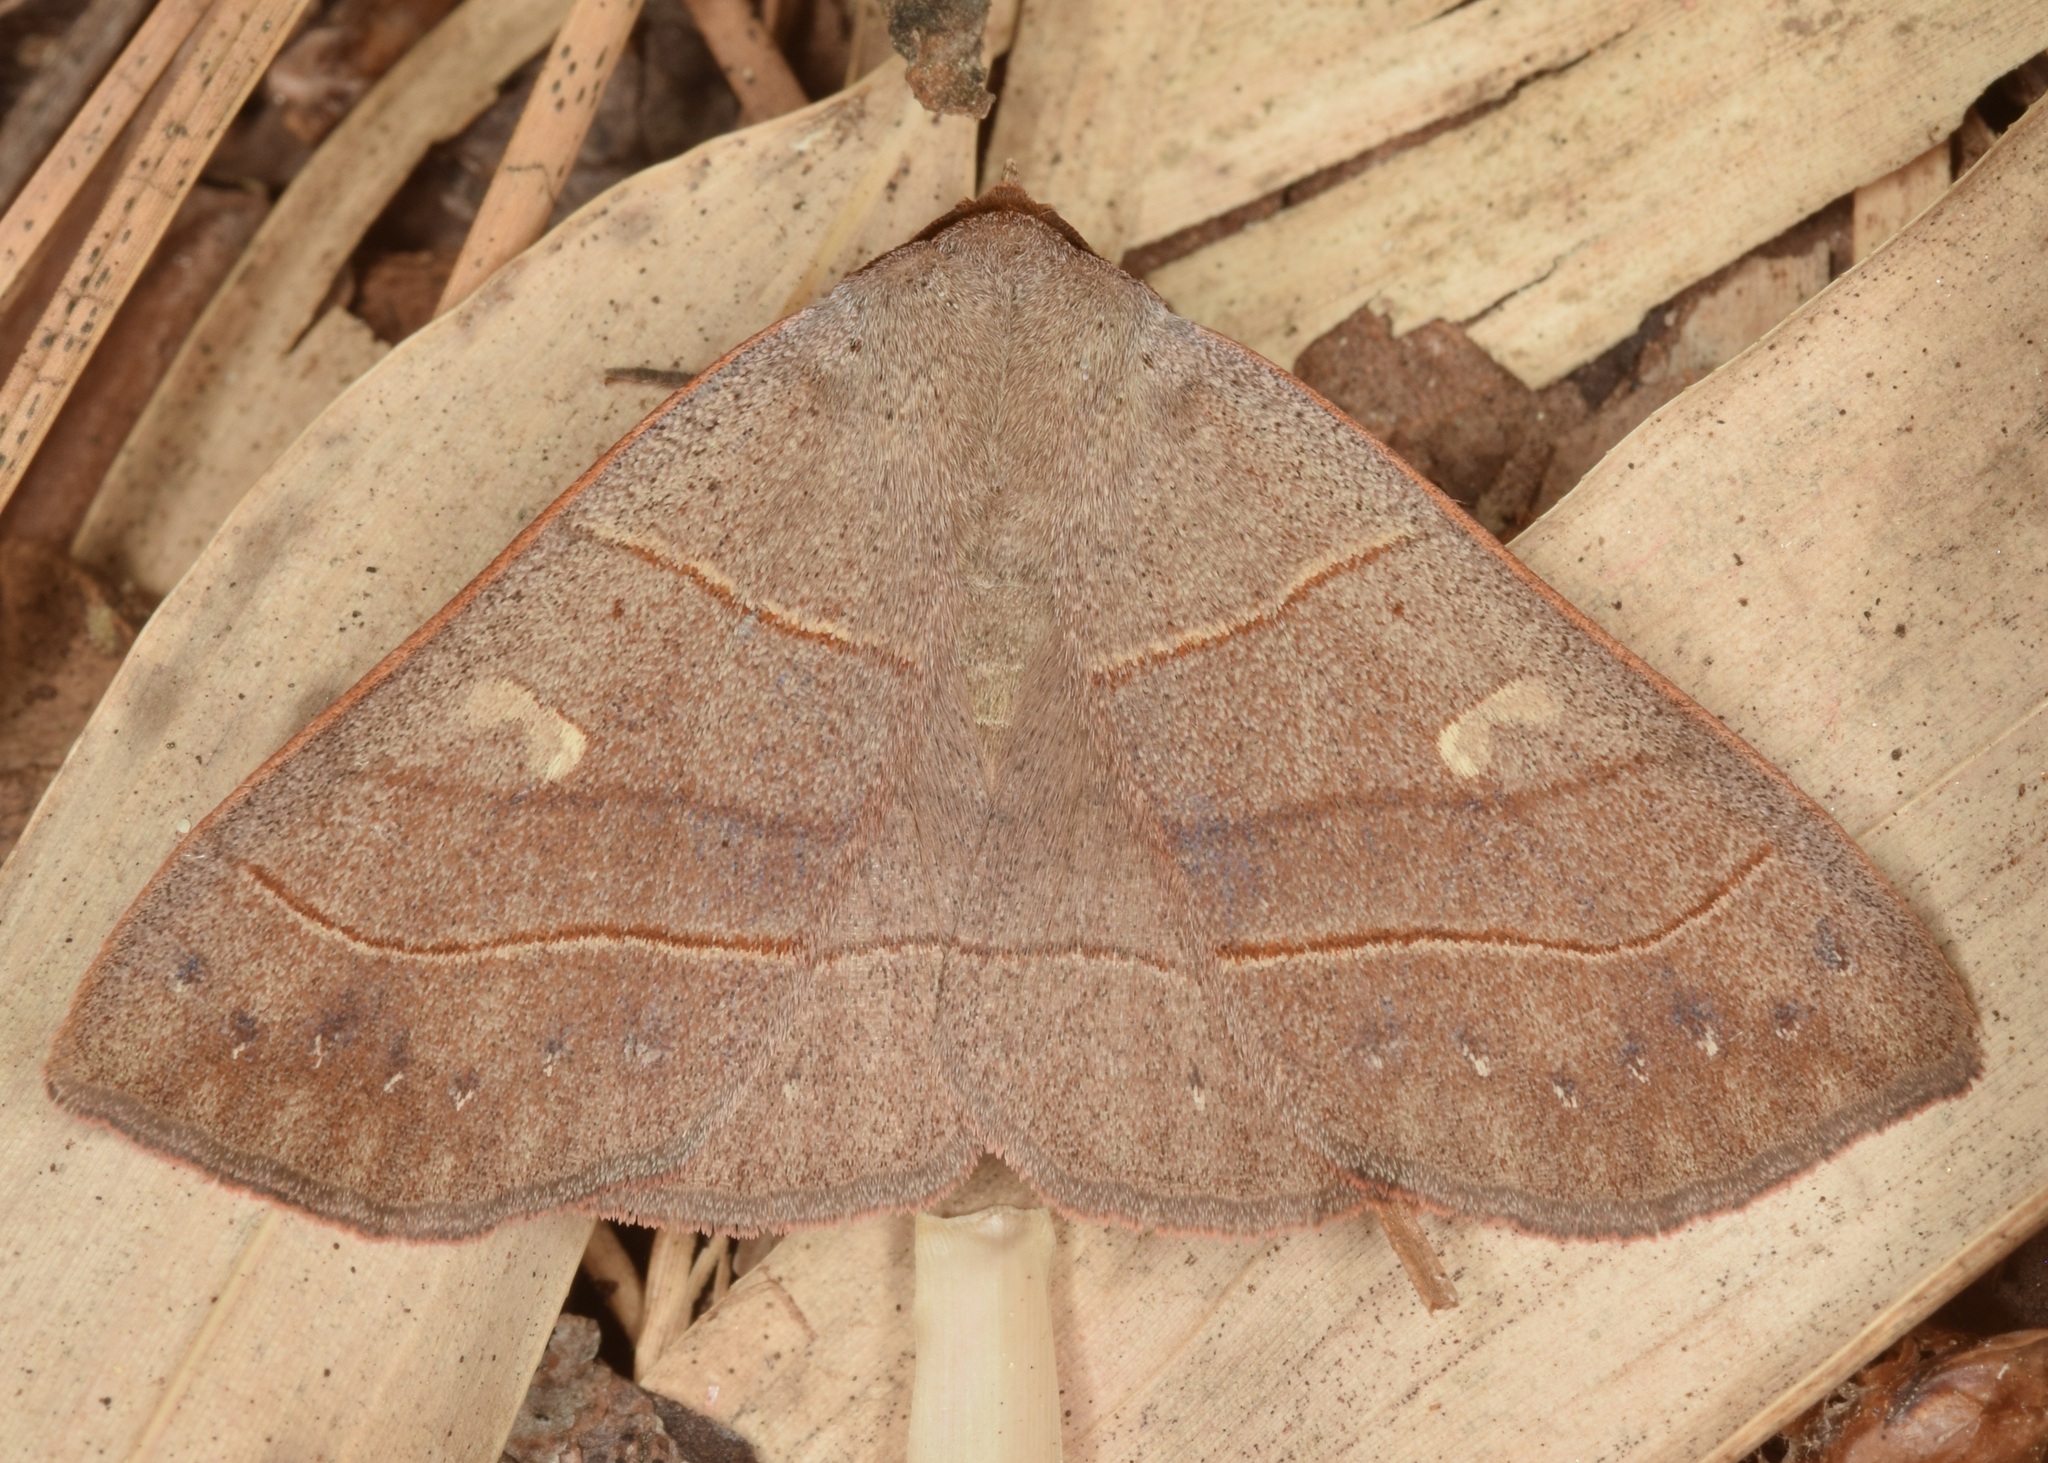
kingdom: Animalia
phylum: Arthropoda
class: Insecta
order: Lepidoptera
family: Erebidae
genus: Panopoda
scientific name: Panopoda rufimargo
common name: Red-lined panopoda moth
